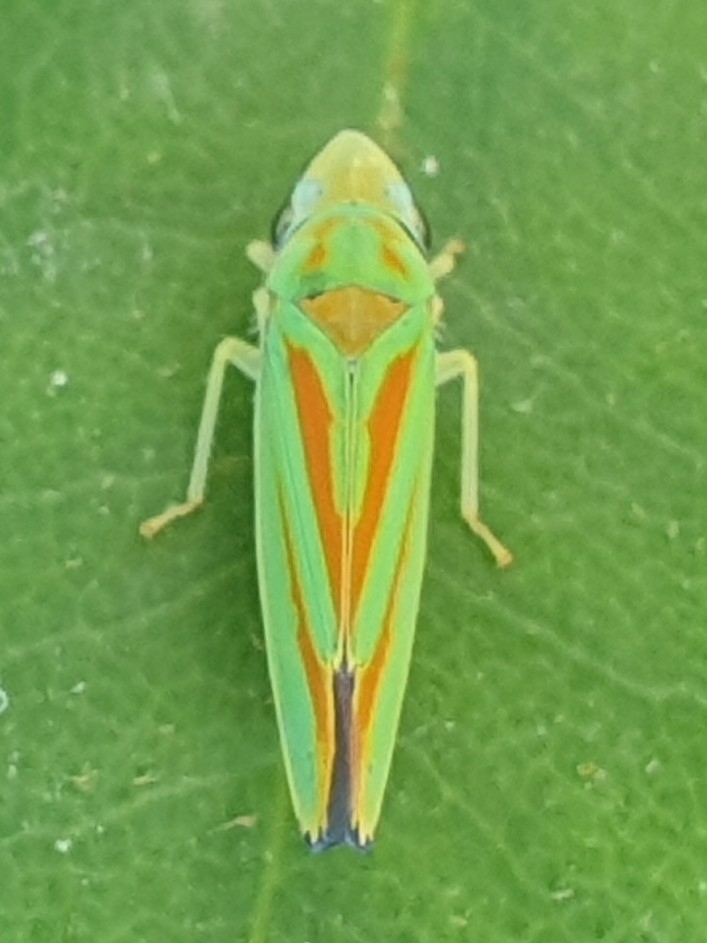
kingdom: Animalia
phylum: Arthropoda
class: Insecta
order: Hemiptera
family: Cicadellidae
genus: Graphocephala
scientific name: Graphocephala fennahi
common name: Rhododendron leafhopper
